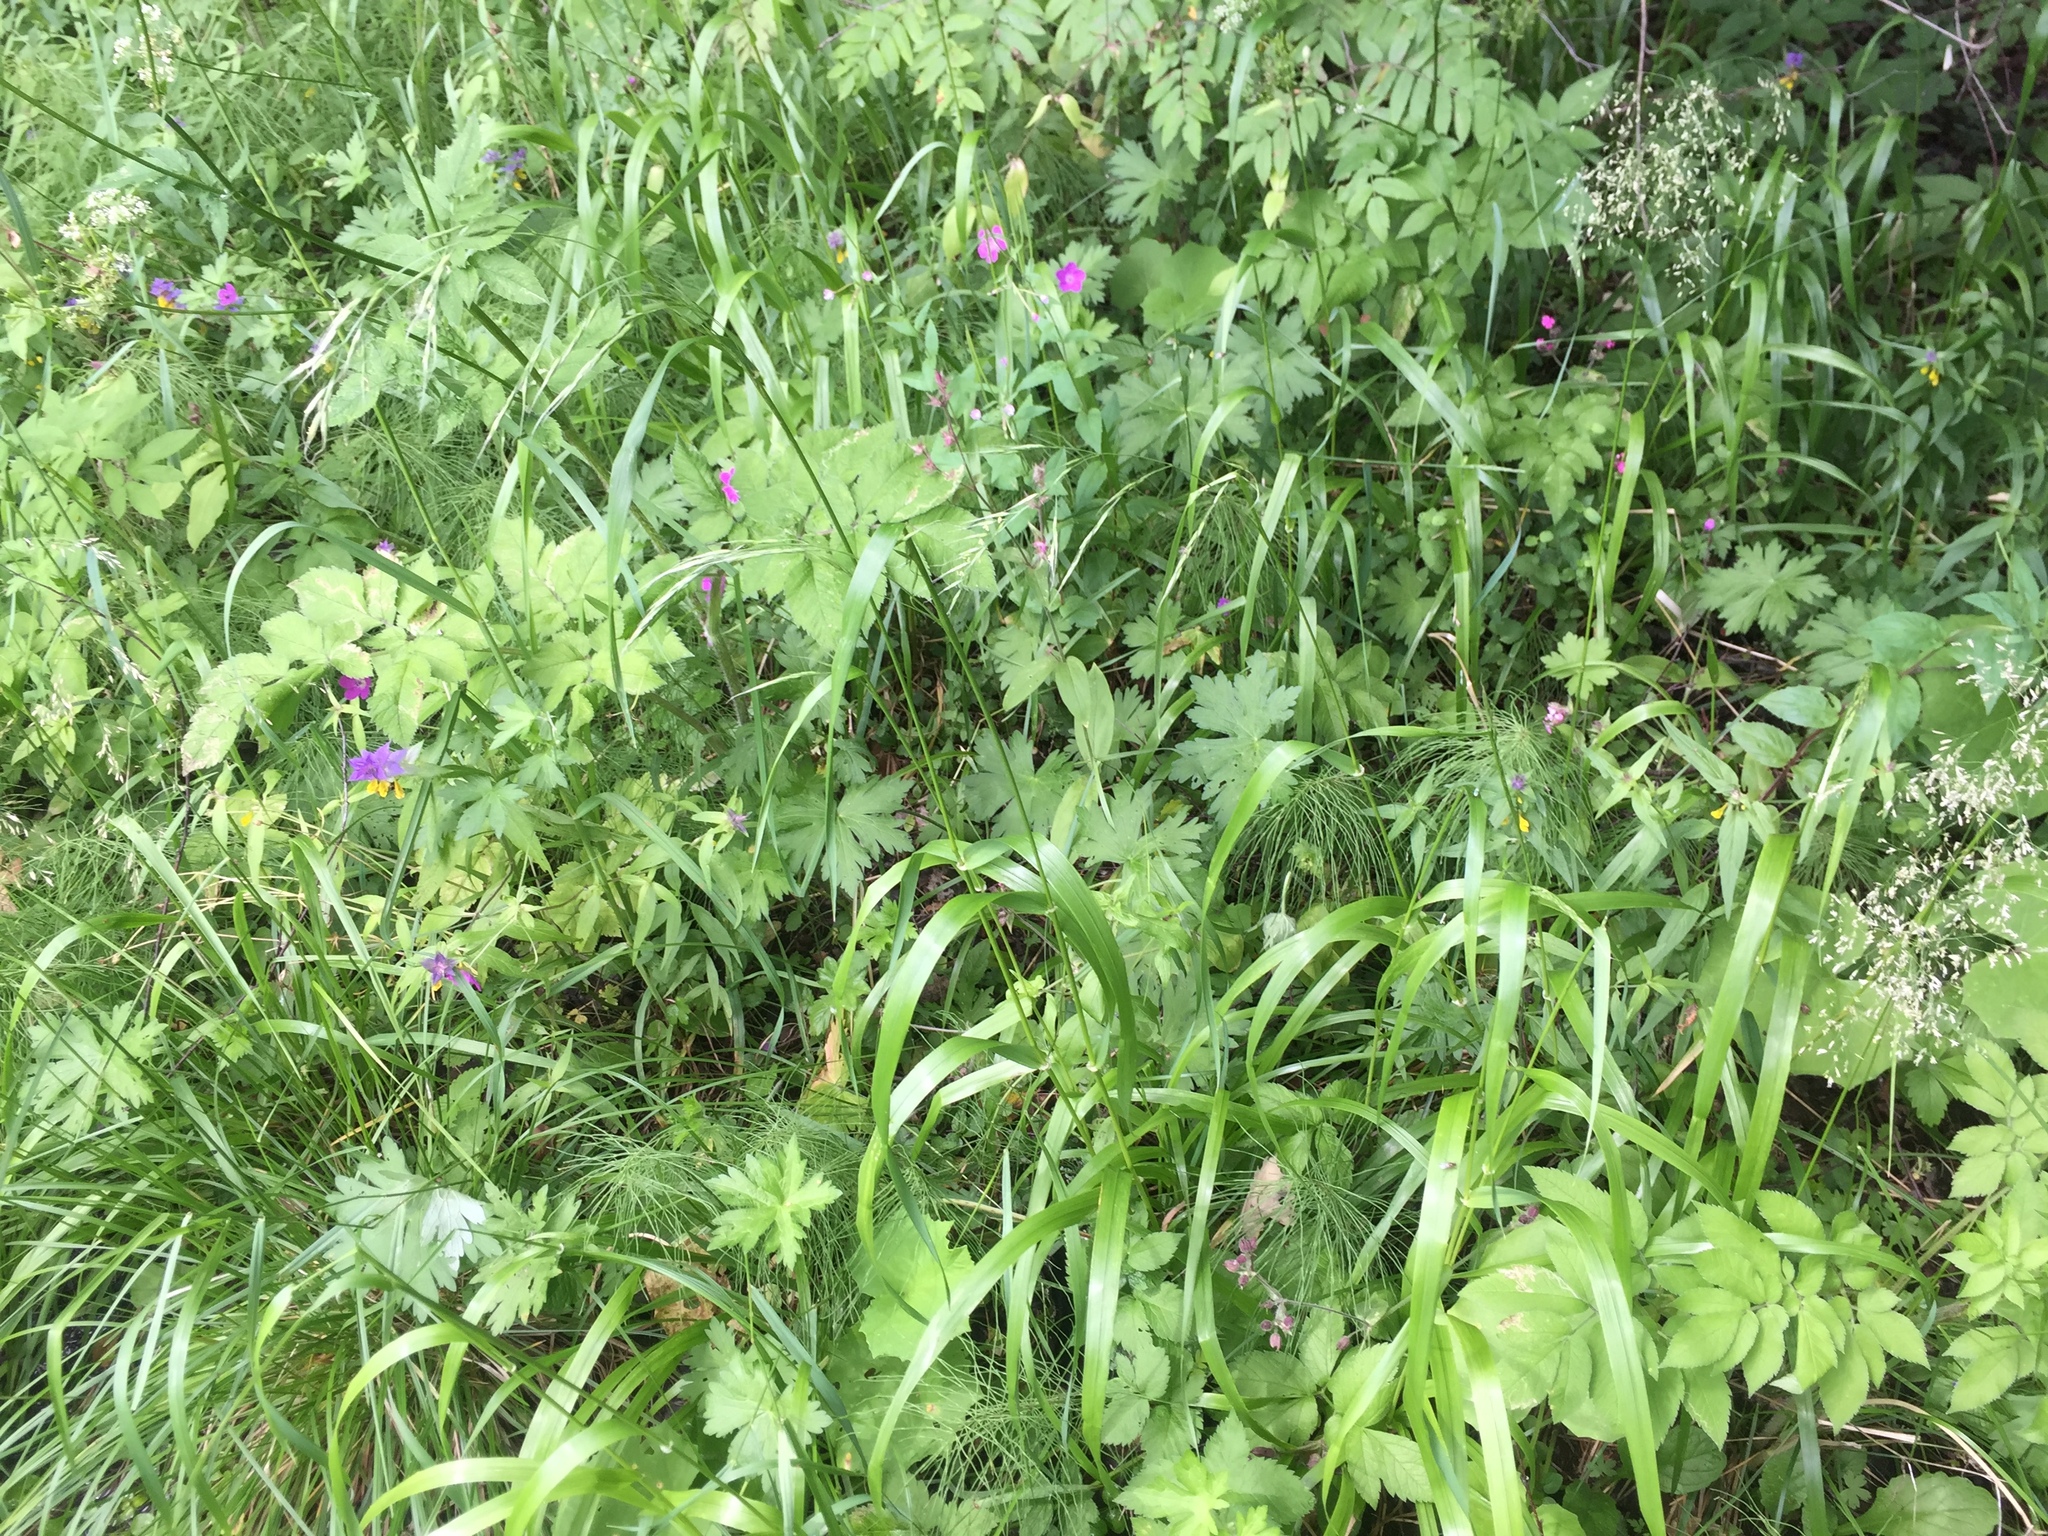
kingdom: Plantae
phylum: Tracheophyta
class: Liliopsida
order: Poales
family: Poaceae
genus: Lolium
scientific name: Lolium giganteum
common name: Giant fescue
